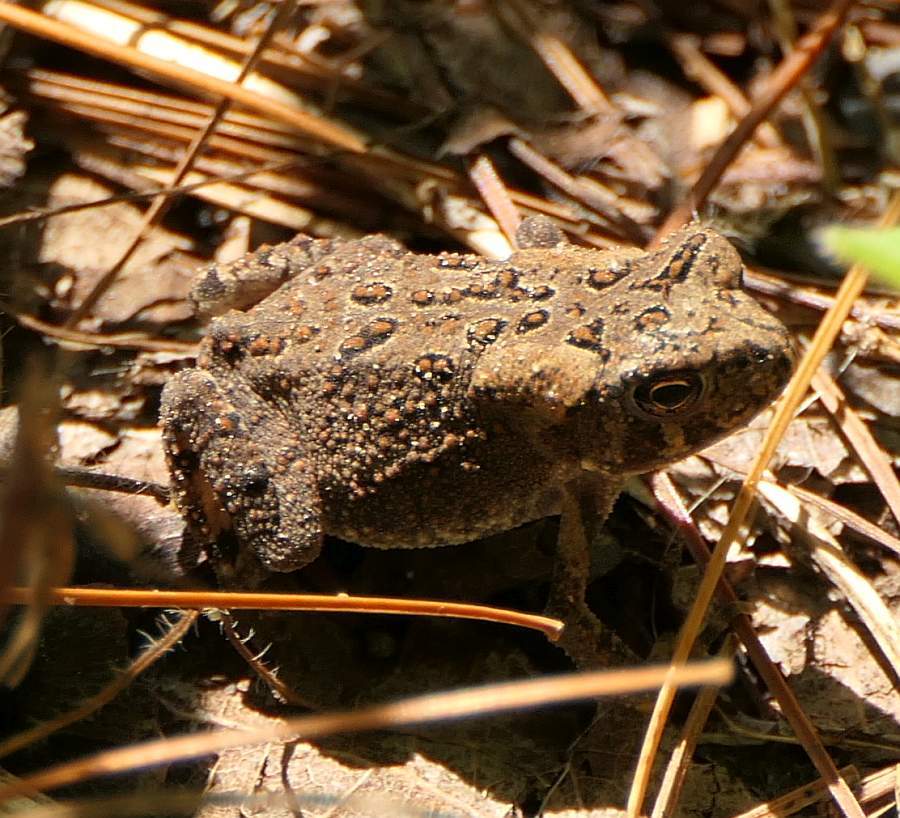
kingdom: Animalia
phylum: Chordata
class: Amphibia
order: Anura
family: Bufonidae
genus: Anaxyrus
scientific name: Anaxyrus americanus
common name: American toad
